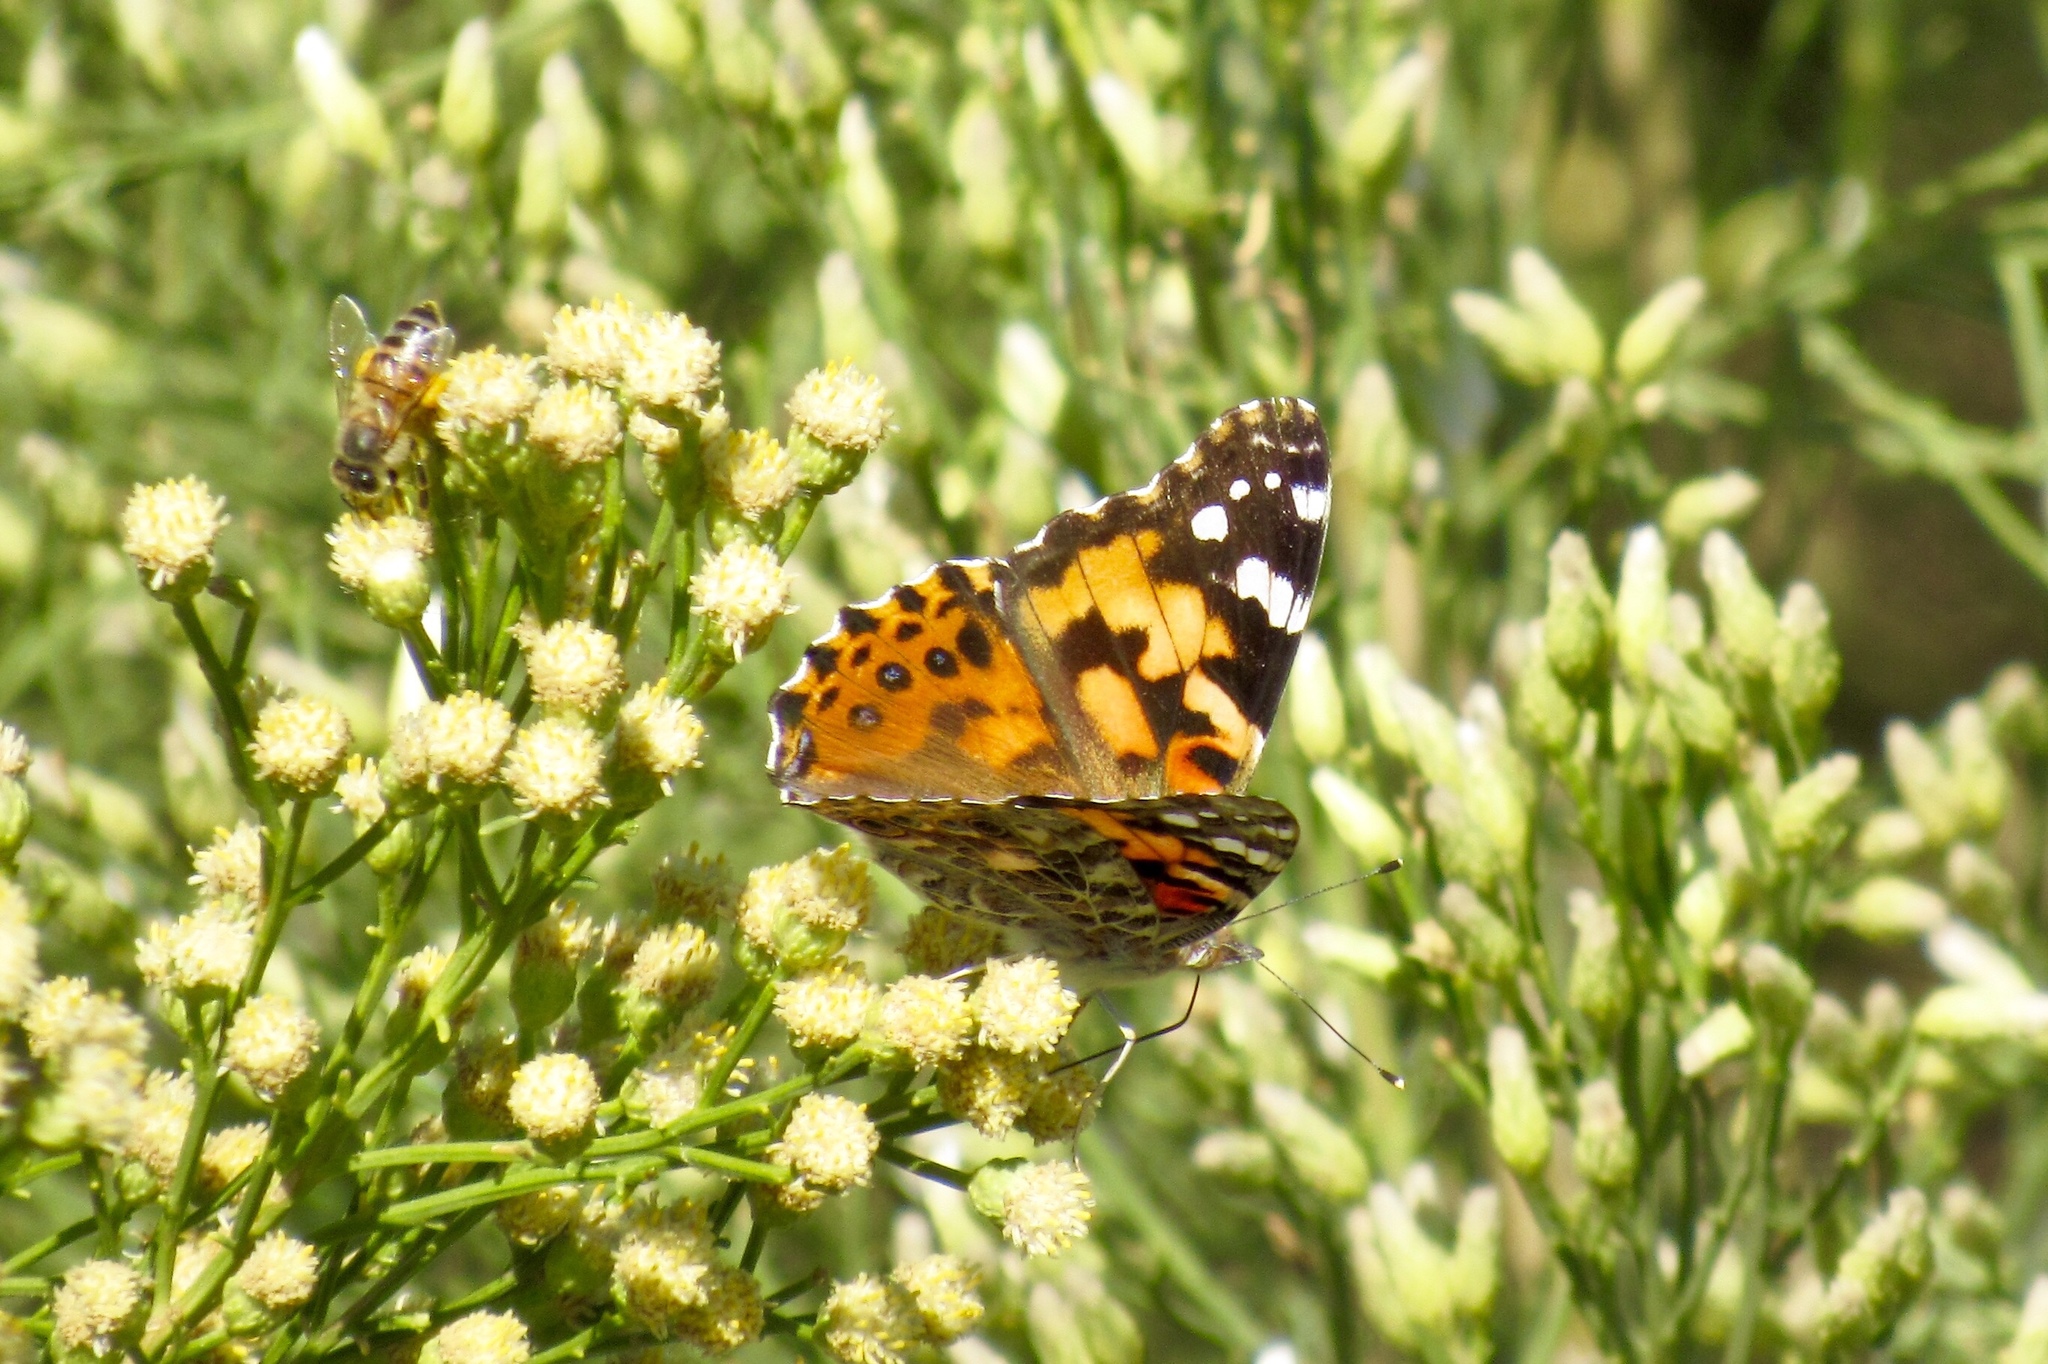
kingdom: Animalia
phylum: Arthropoda
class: Insecta
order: Lepidoptera
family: Nymphalidae
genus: Vanessa
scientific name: Vanessa cardui
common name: Painted lady
